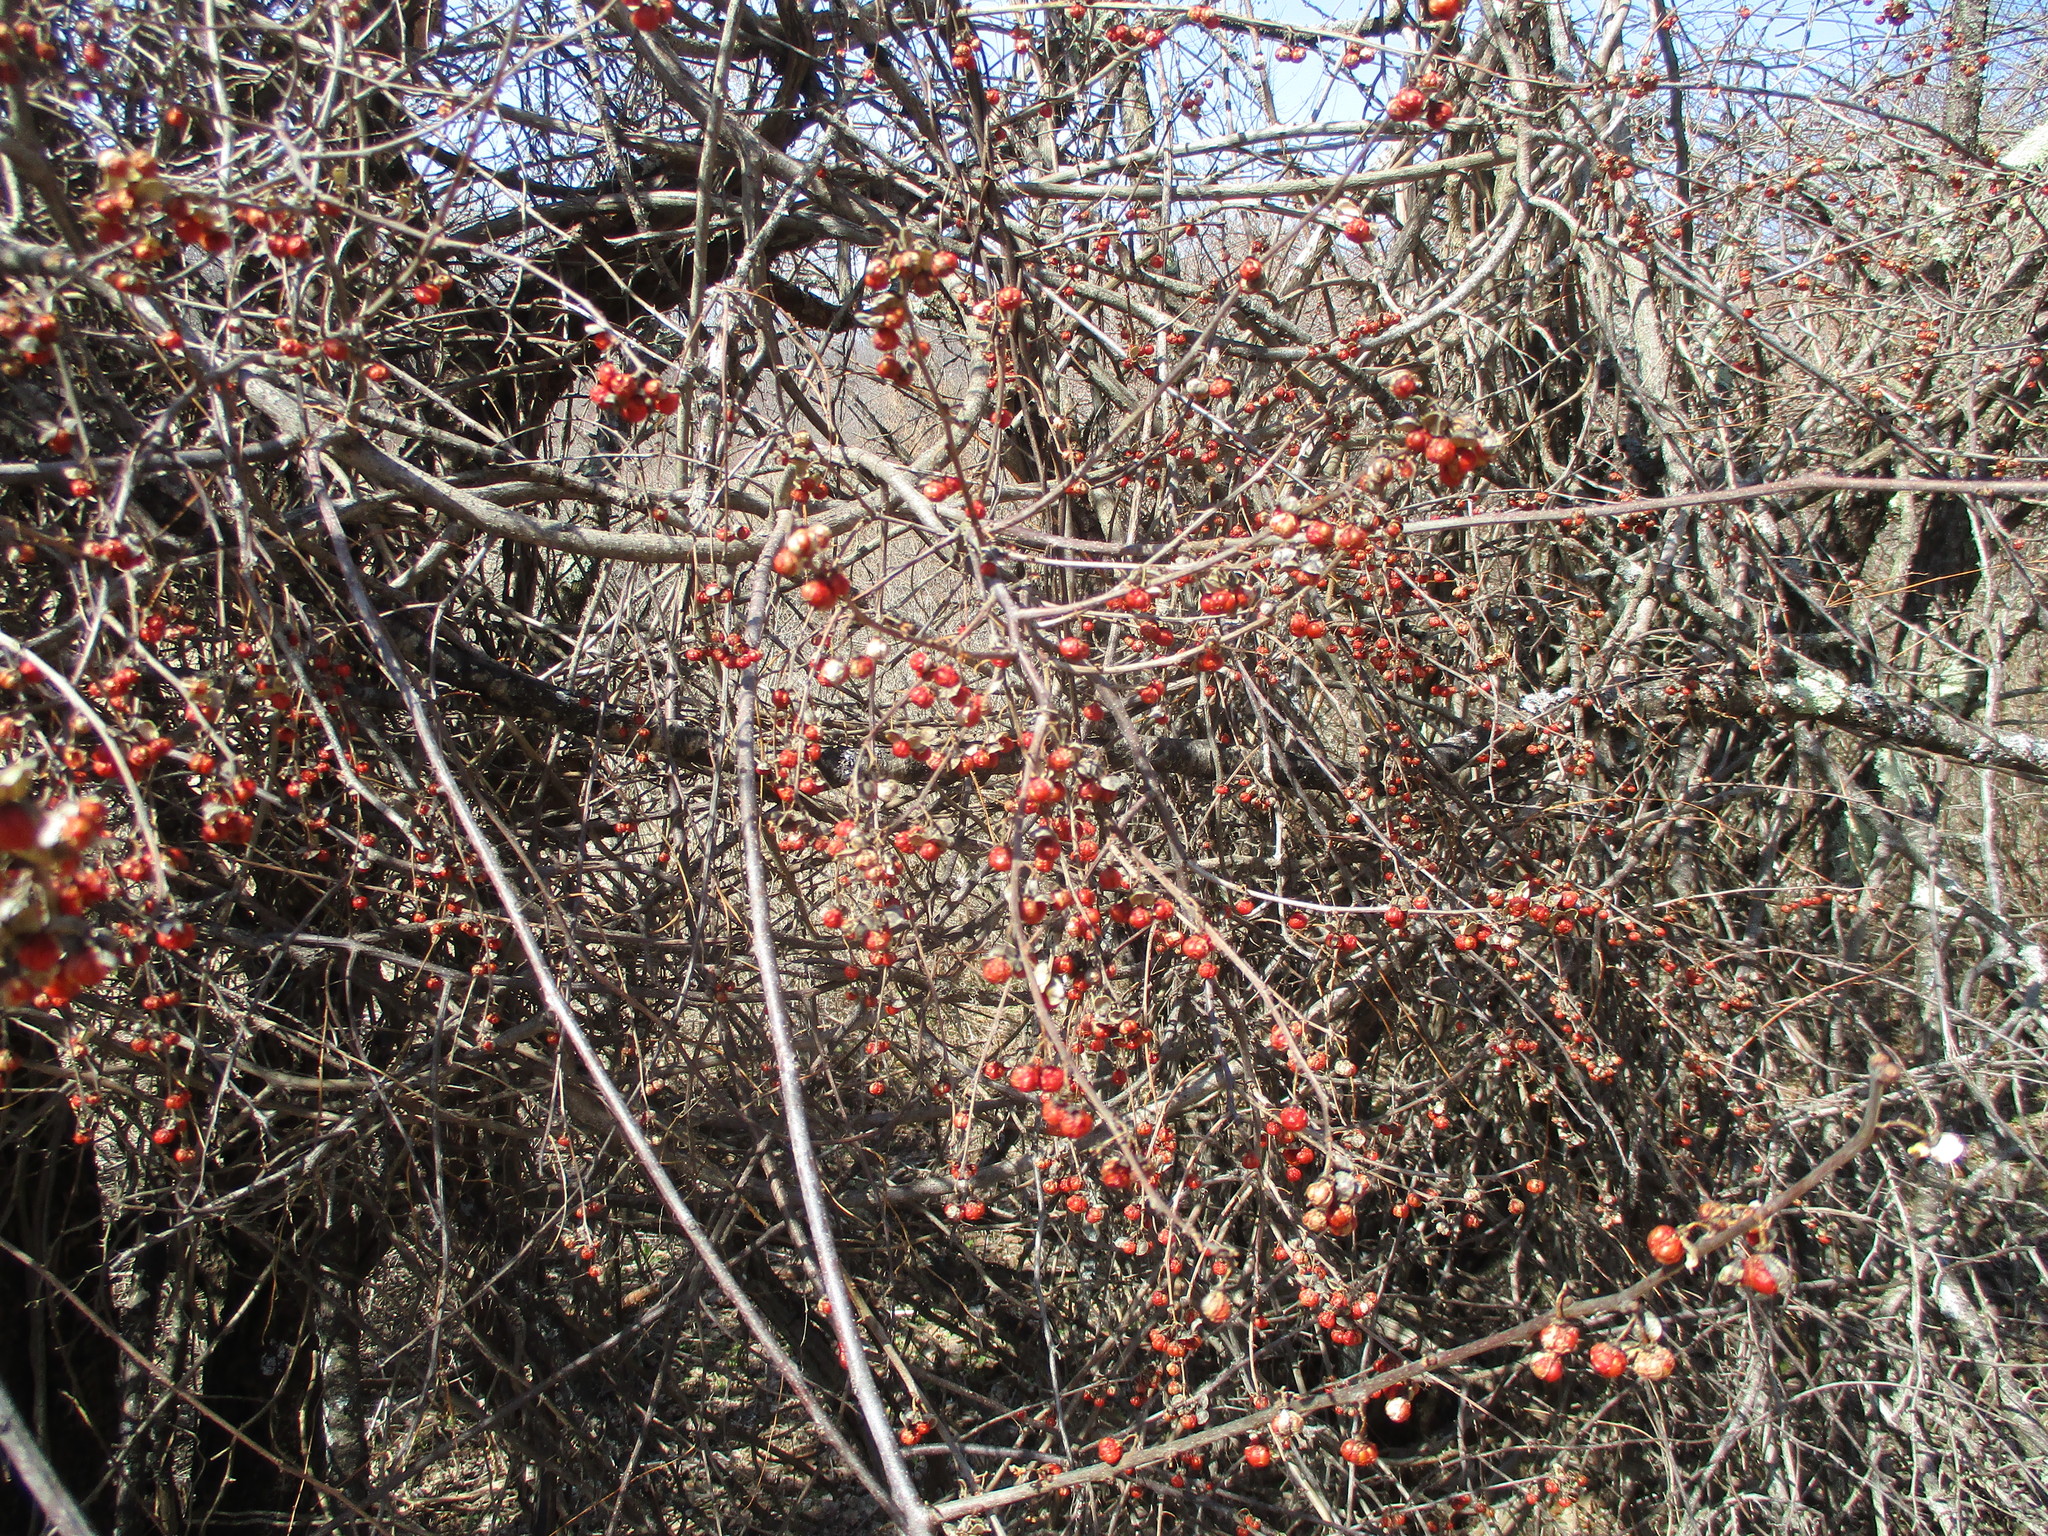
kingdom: Plantae
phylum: Tracheophyta
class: Magnoliopsida
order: Celastrales
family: Celastraceae
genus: Celastrus
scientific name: Celastrus orbiculatus
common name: Oriental bittersweet
